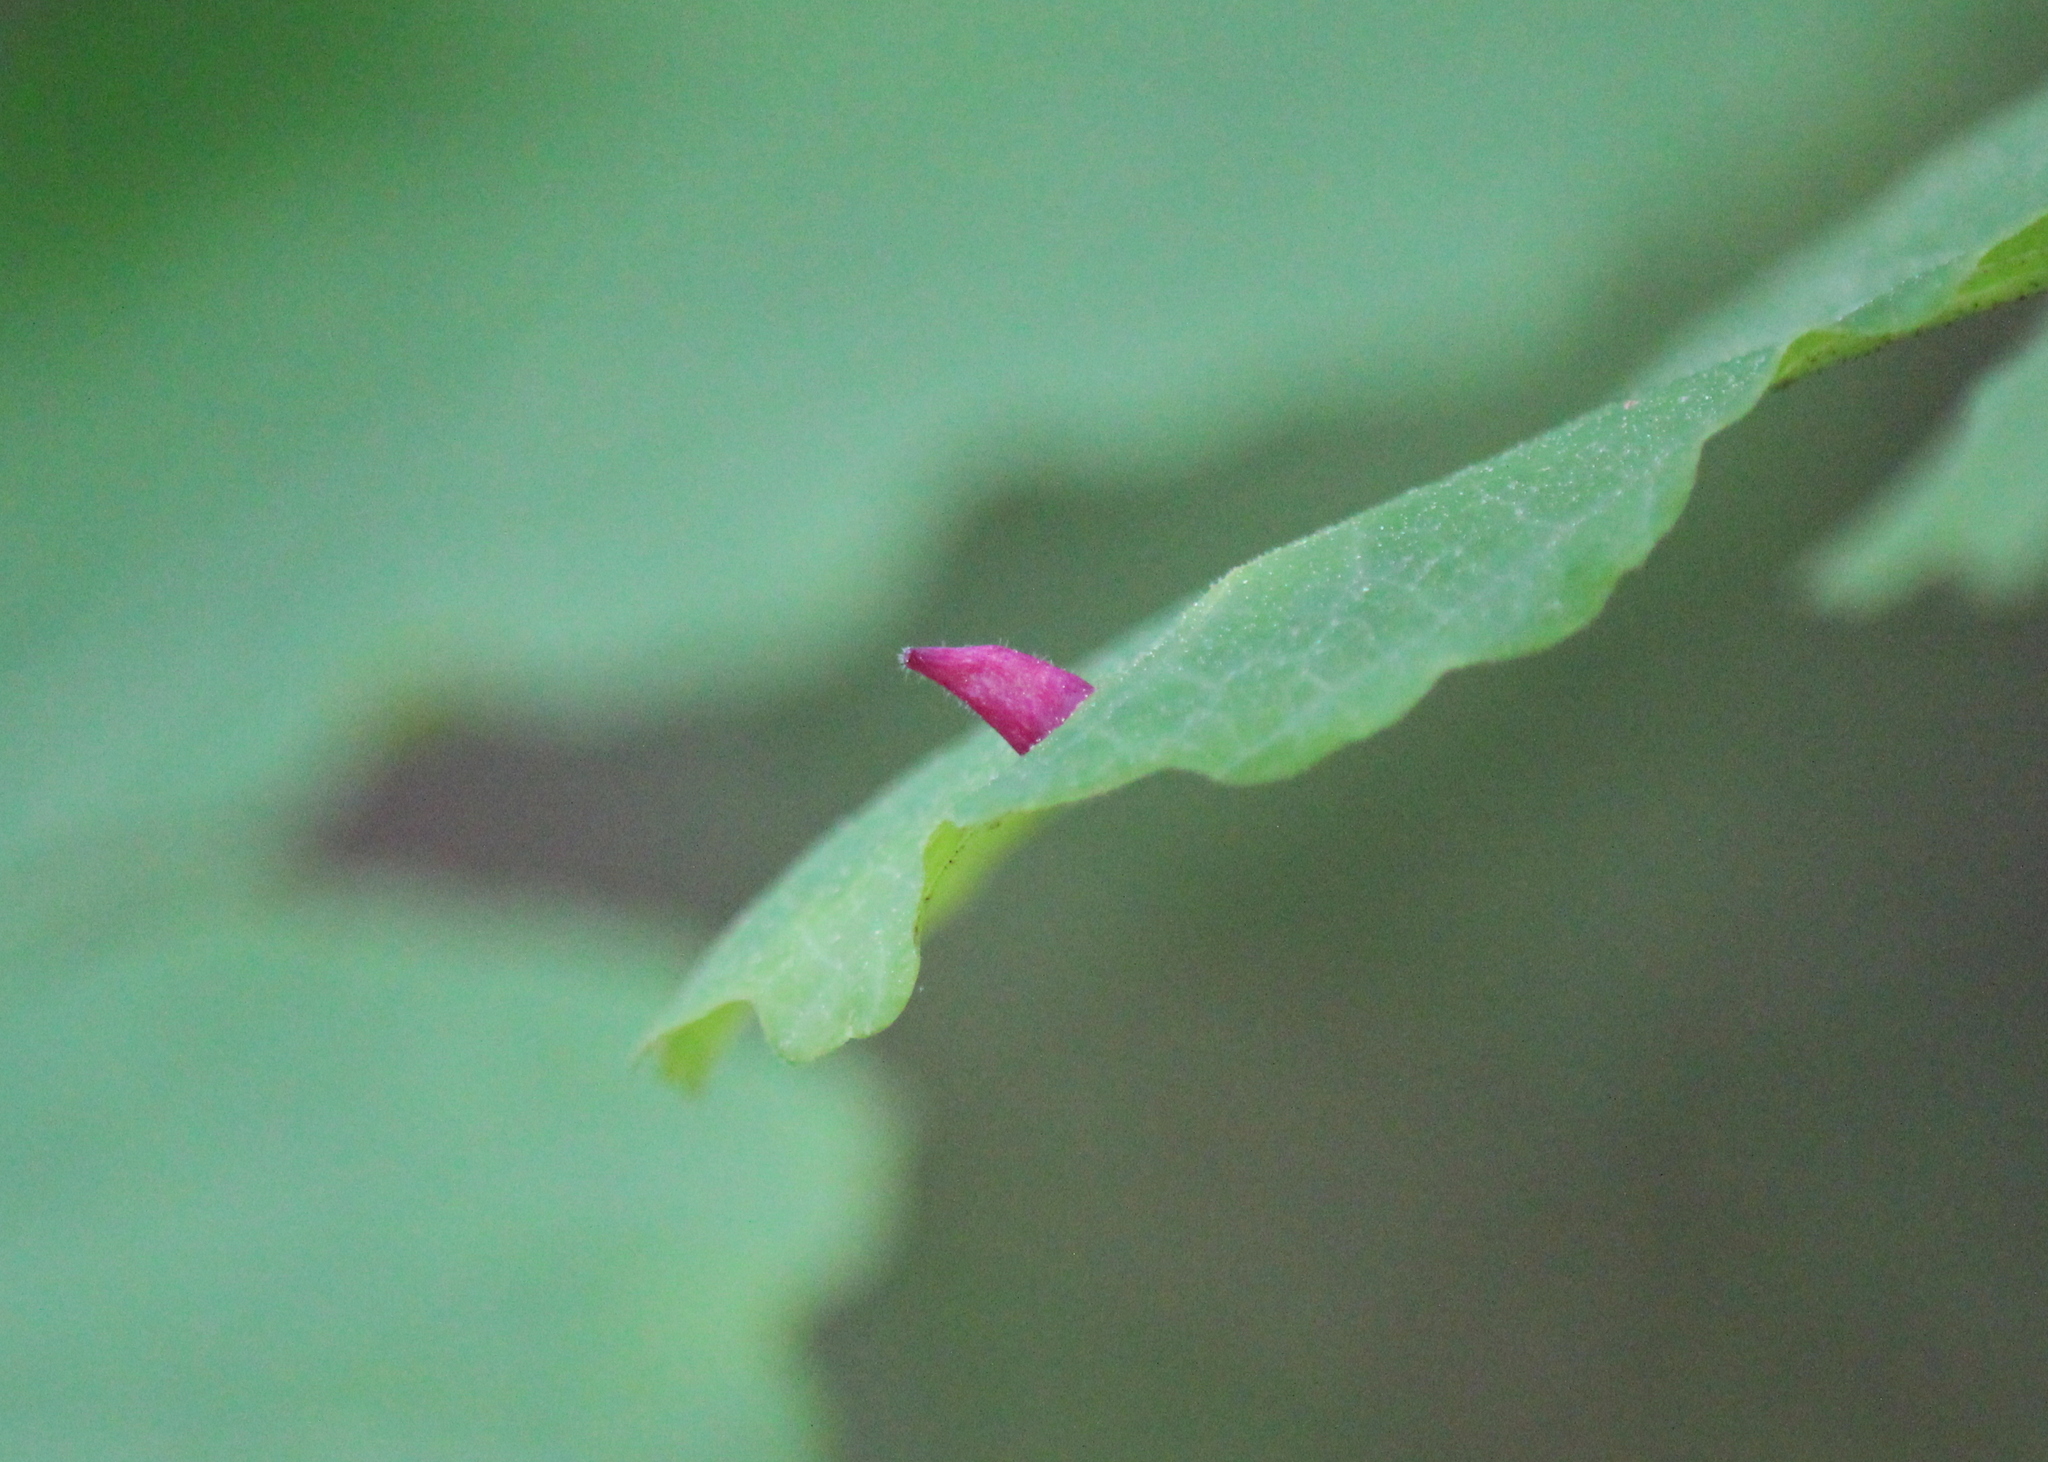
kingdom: Animalia
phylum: Arthropoda
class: Insecta
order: Hemiptera
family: Aphididae
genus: Hormaphis
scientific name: Hormaphis hamamelidis
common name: Witch-hazel cone gall aphid
